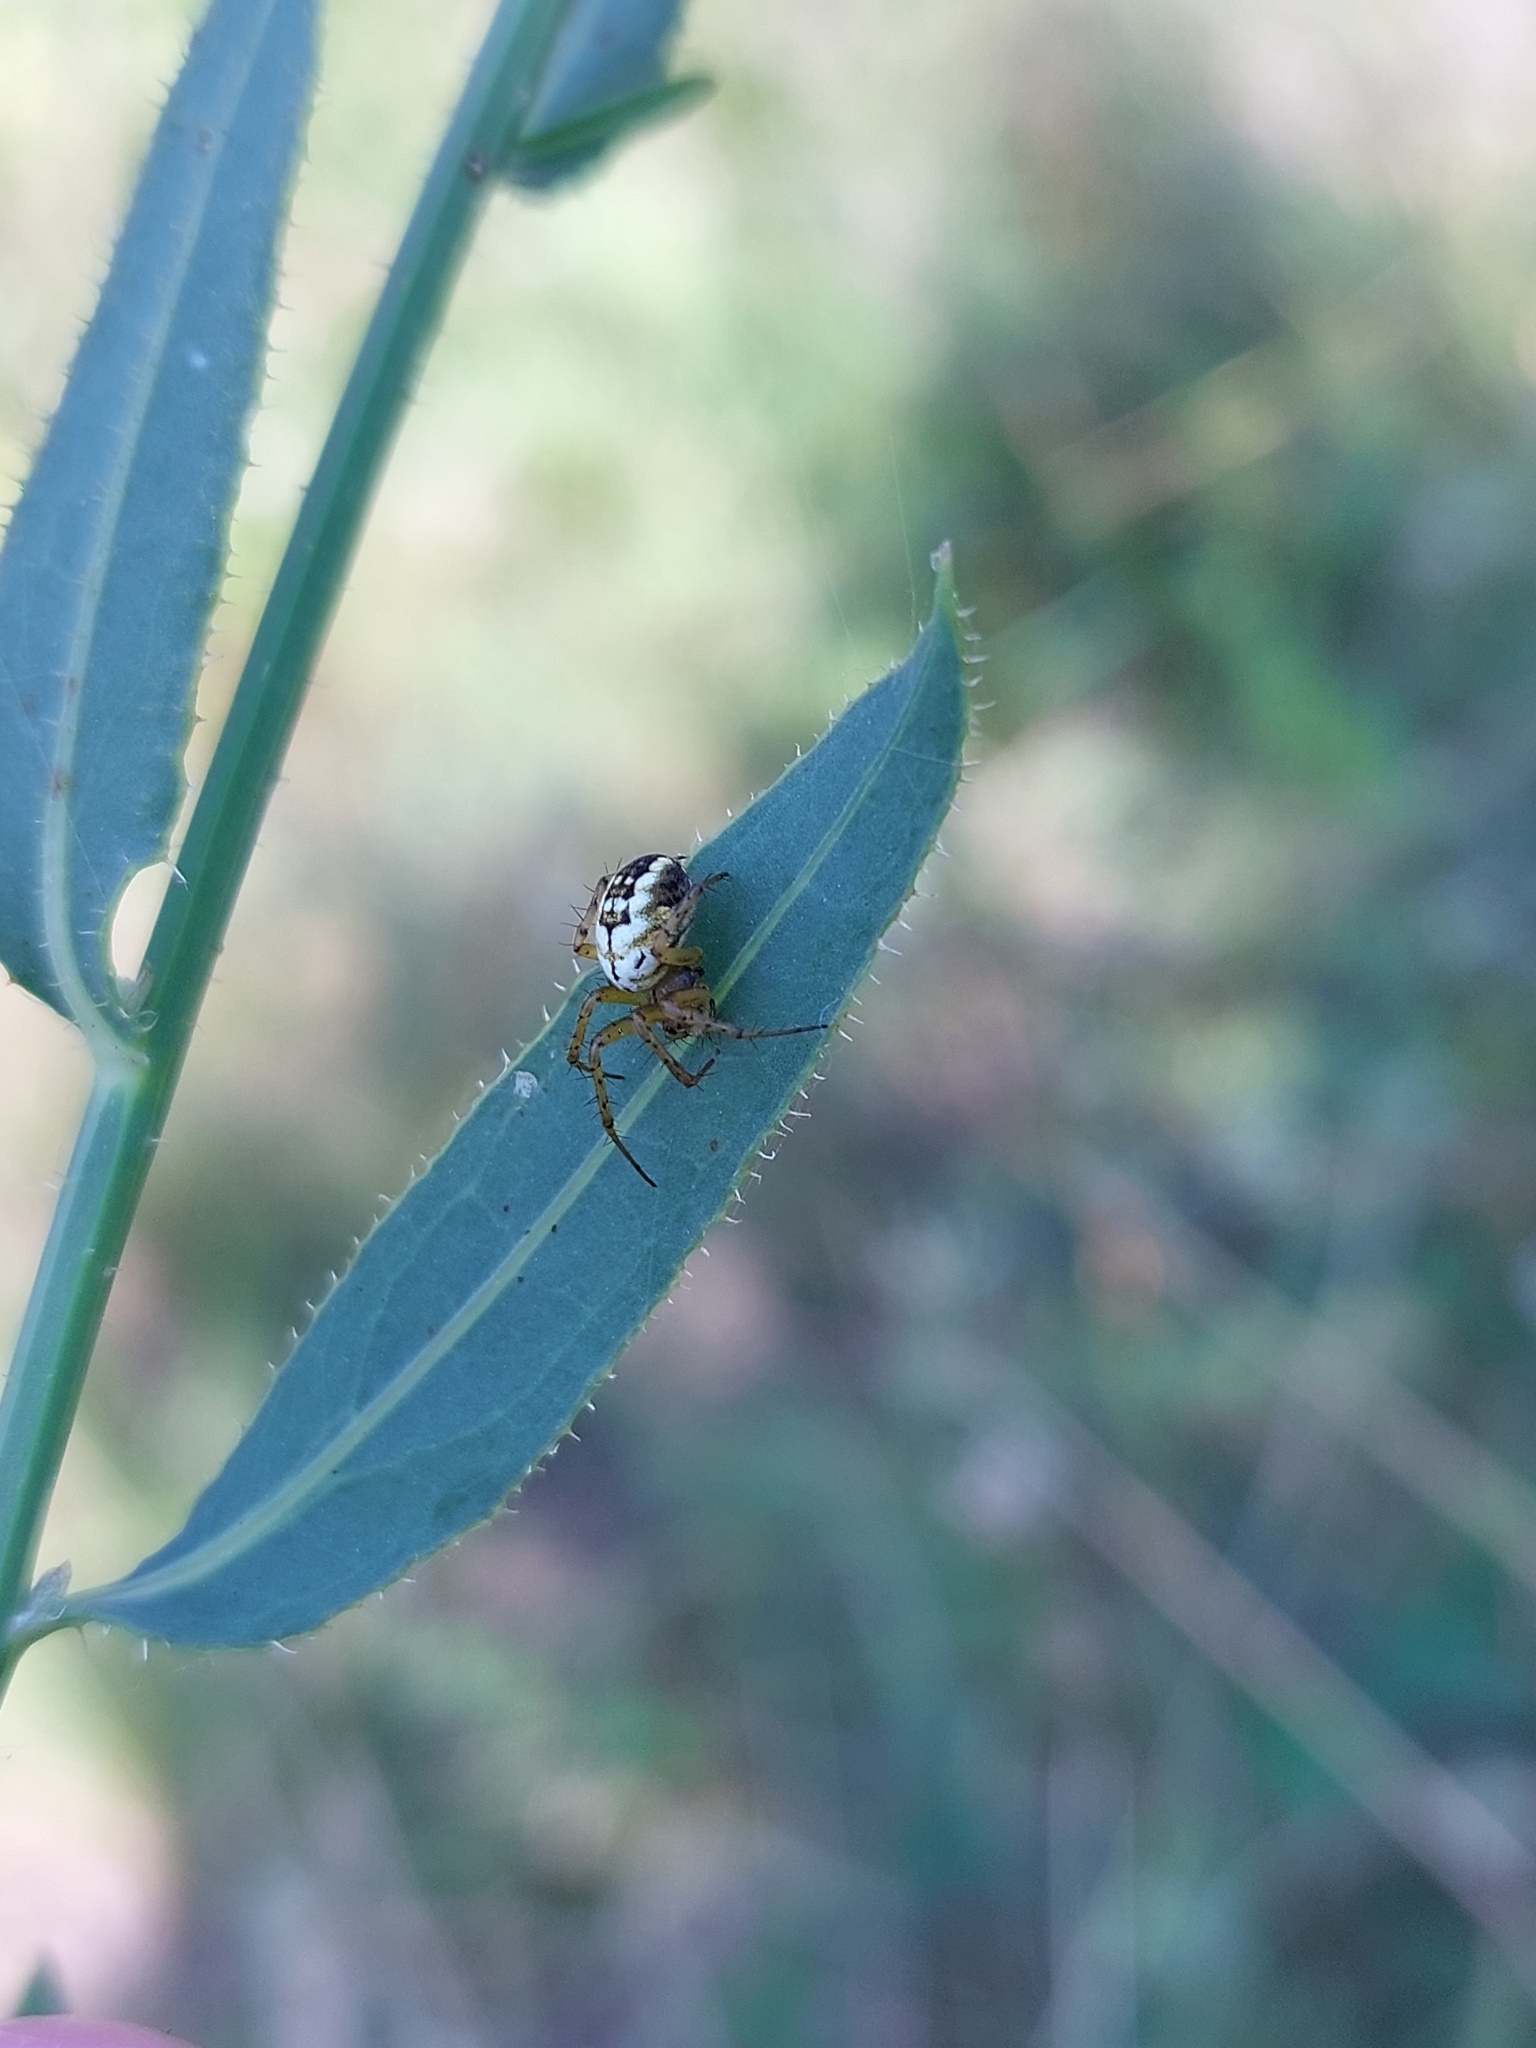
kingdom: Animalia
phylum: Arthropoda
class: Arachnida
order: Araneae
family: Araneidae
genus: Mangora
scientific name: Mangora acalypha
